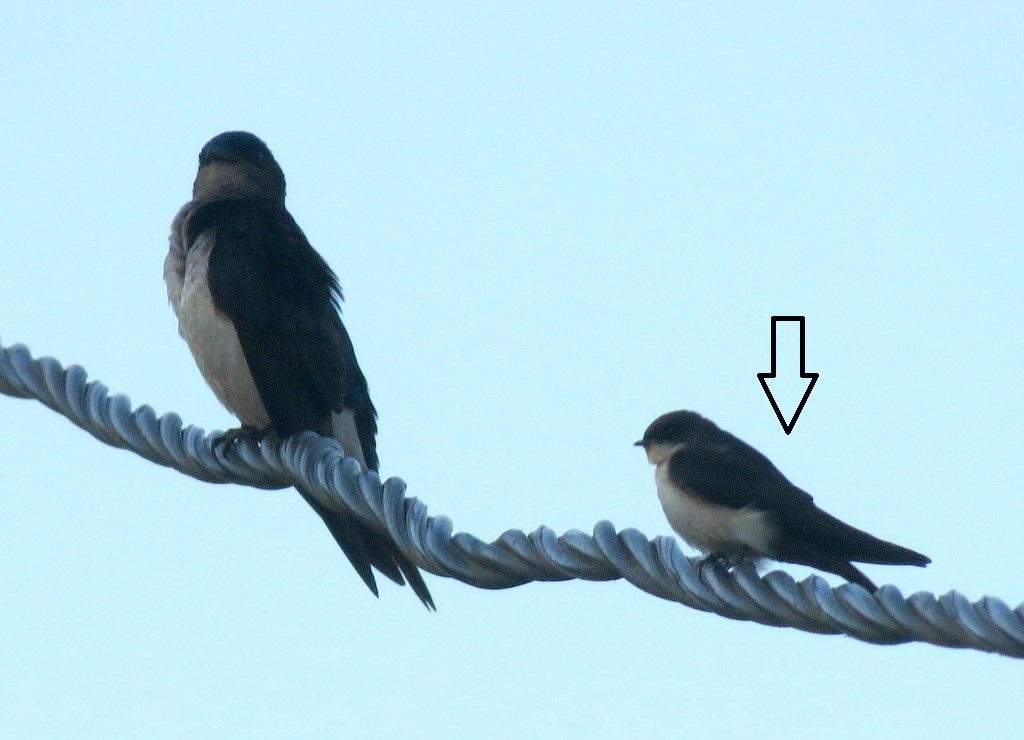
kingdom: Animalia
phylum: Chordata
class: Aves
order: Passeriformes
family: Hirundinidae
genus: Notiochelidon
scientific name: Notiochelidon cyanoleuca
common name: Blue-and-white swallow
